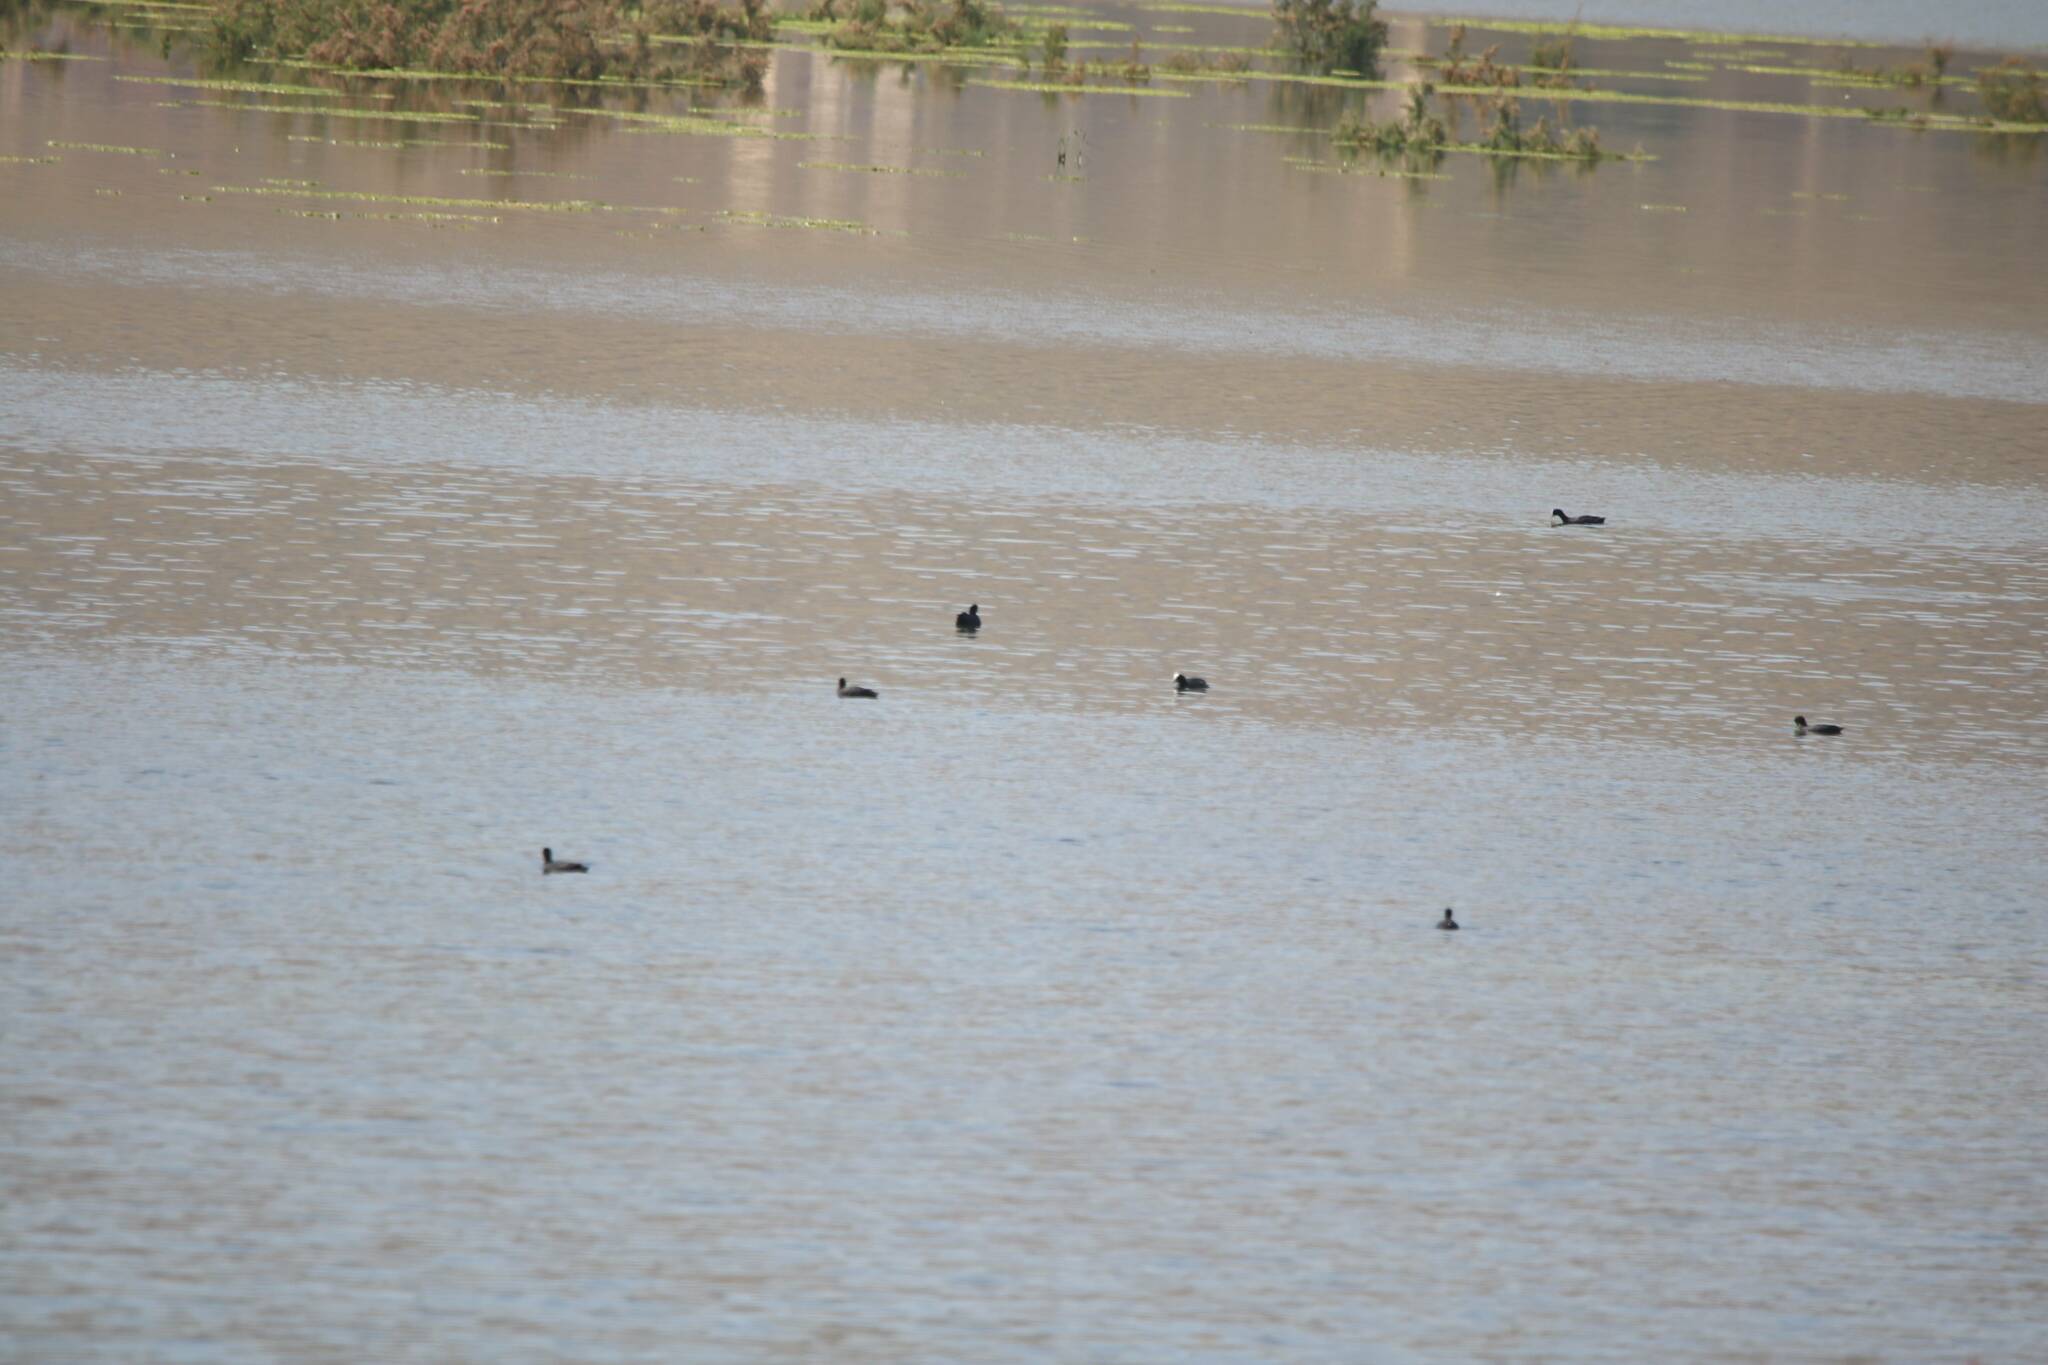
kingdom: Animalia
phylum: Chordata
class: Aves
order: Gruiformes
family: Rallidae
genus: Fulica
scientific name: Fulica atra
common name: Eurasian coot
